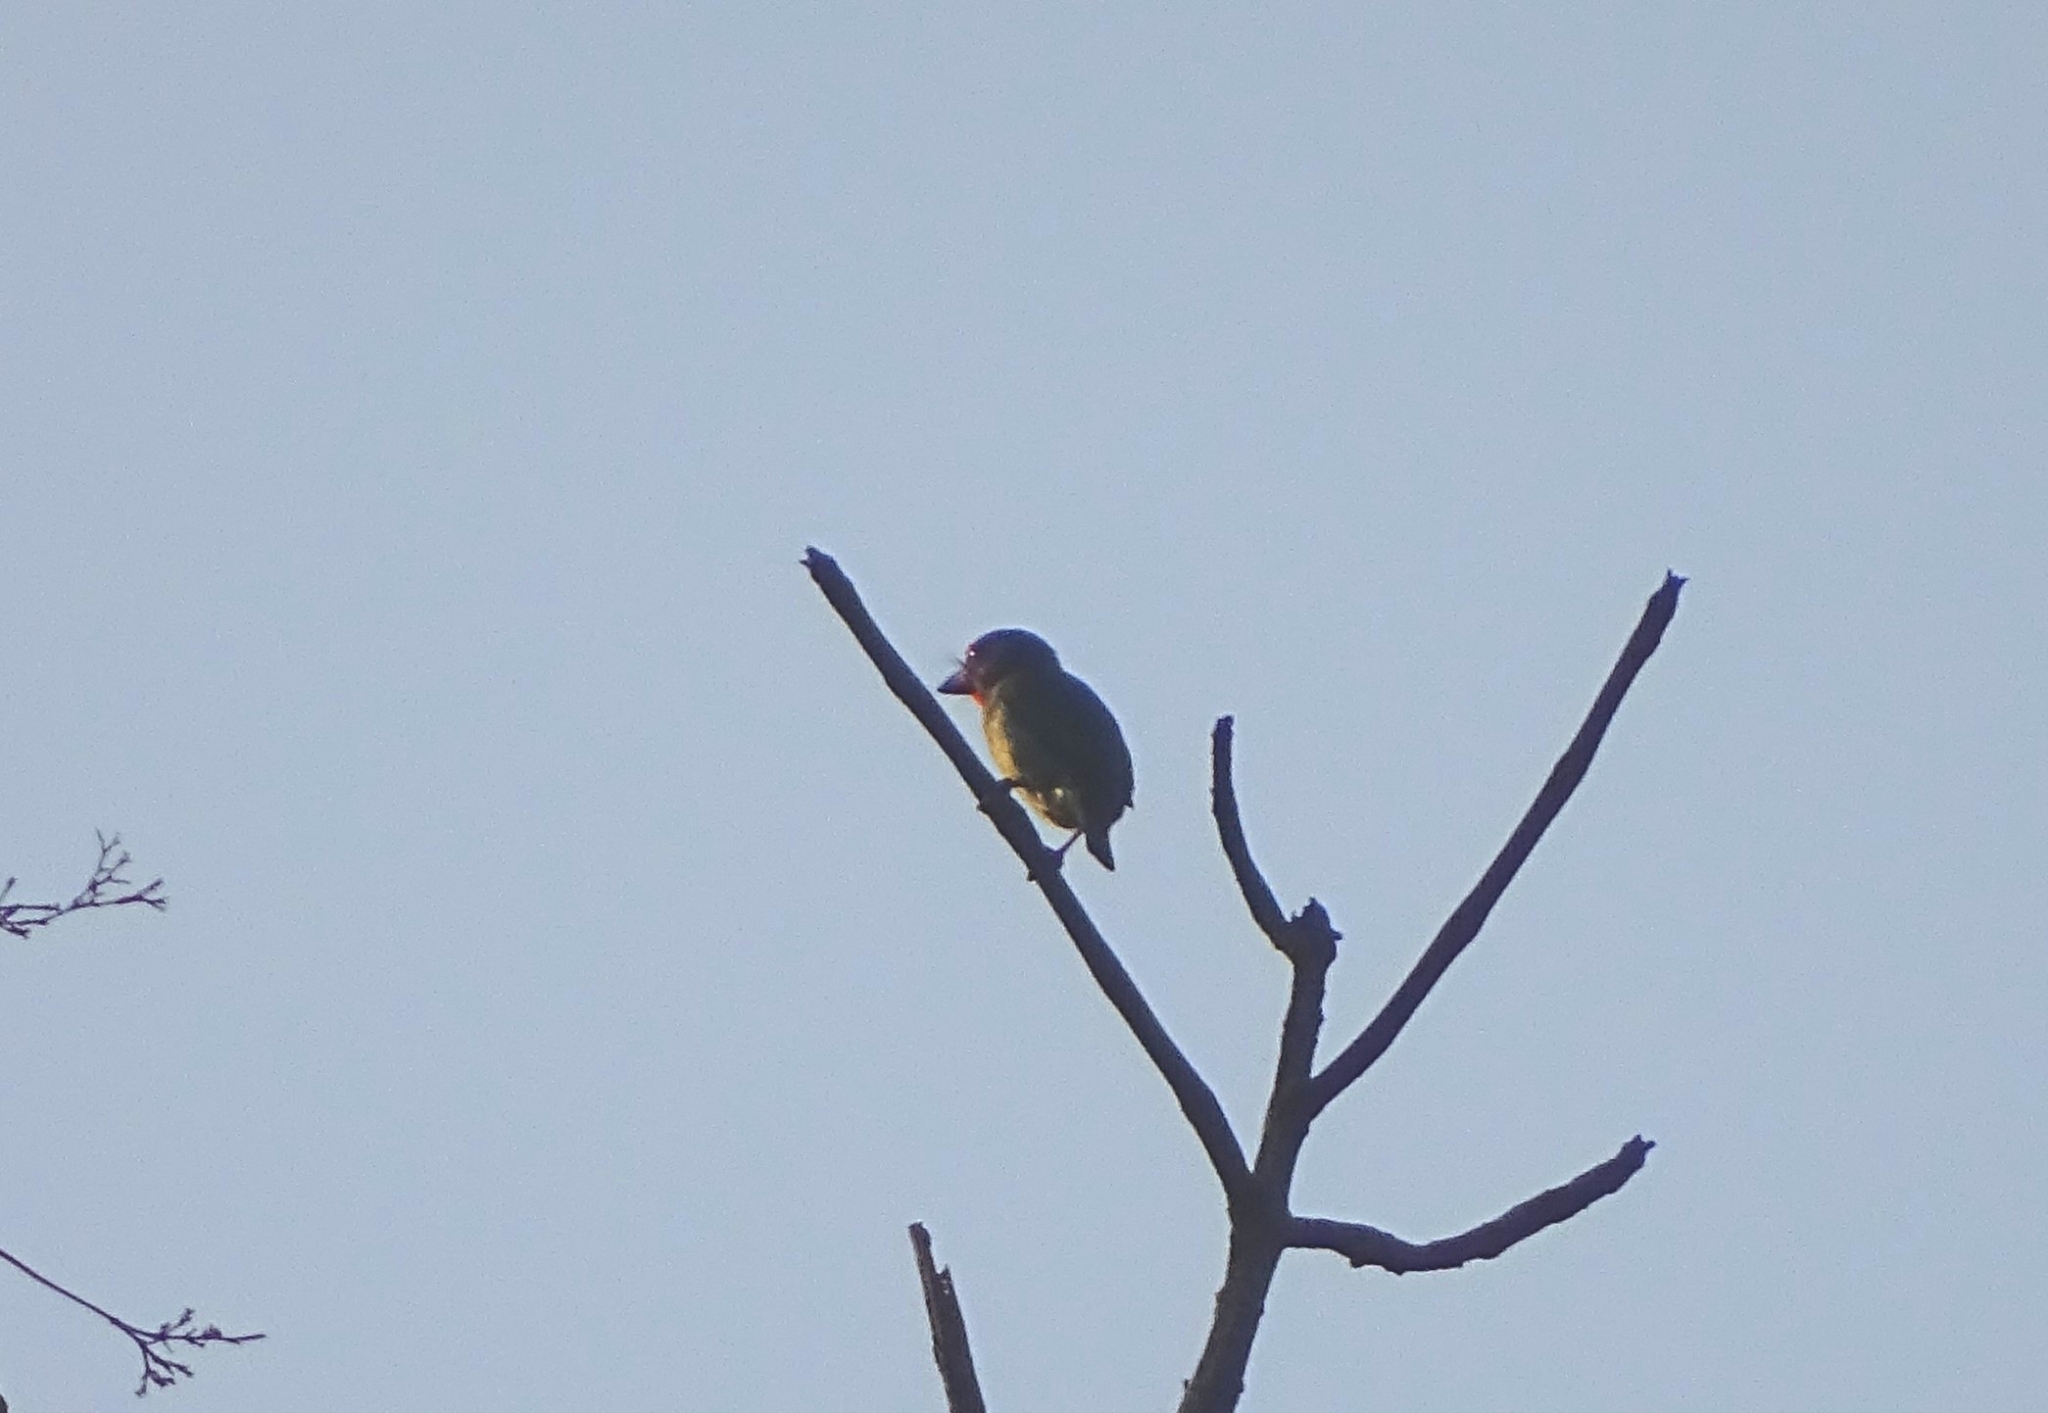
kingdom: Animalia
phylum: Chordata
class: Aves
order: Piciformes
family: Megalaimidae
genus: Psilopogon
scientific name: Psilopogon haemacephalus
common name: Coppersmith barbet
